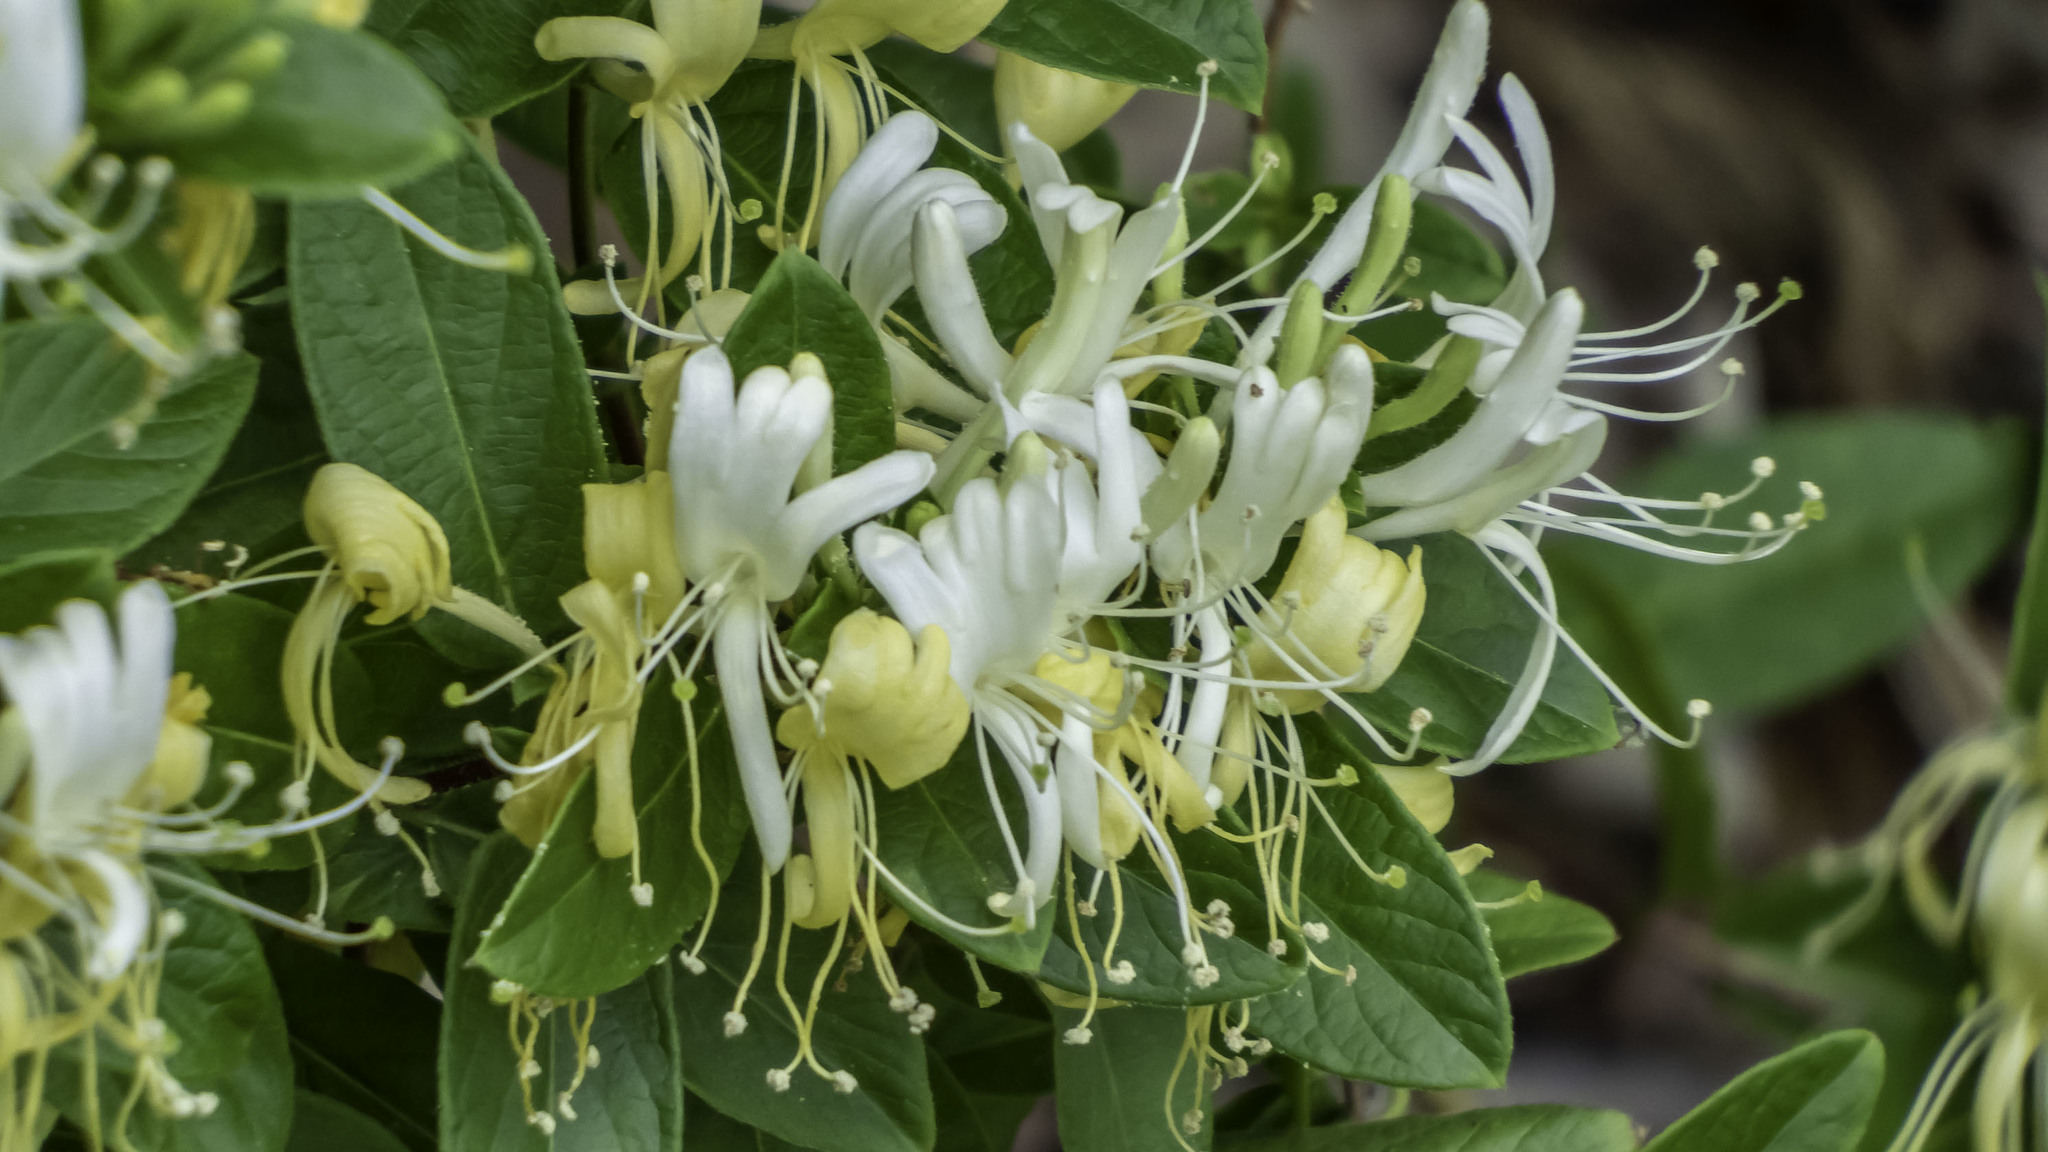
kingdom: Plantae
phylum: Tracheophyta
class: Magnoliopsida
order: Dipsacales
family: Caprifoliaceae
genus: Lonicera
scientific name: Lonicera japonica
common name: Japanese honeysuckle
